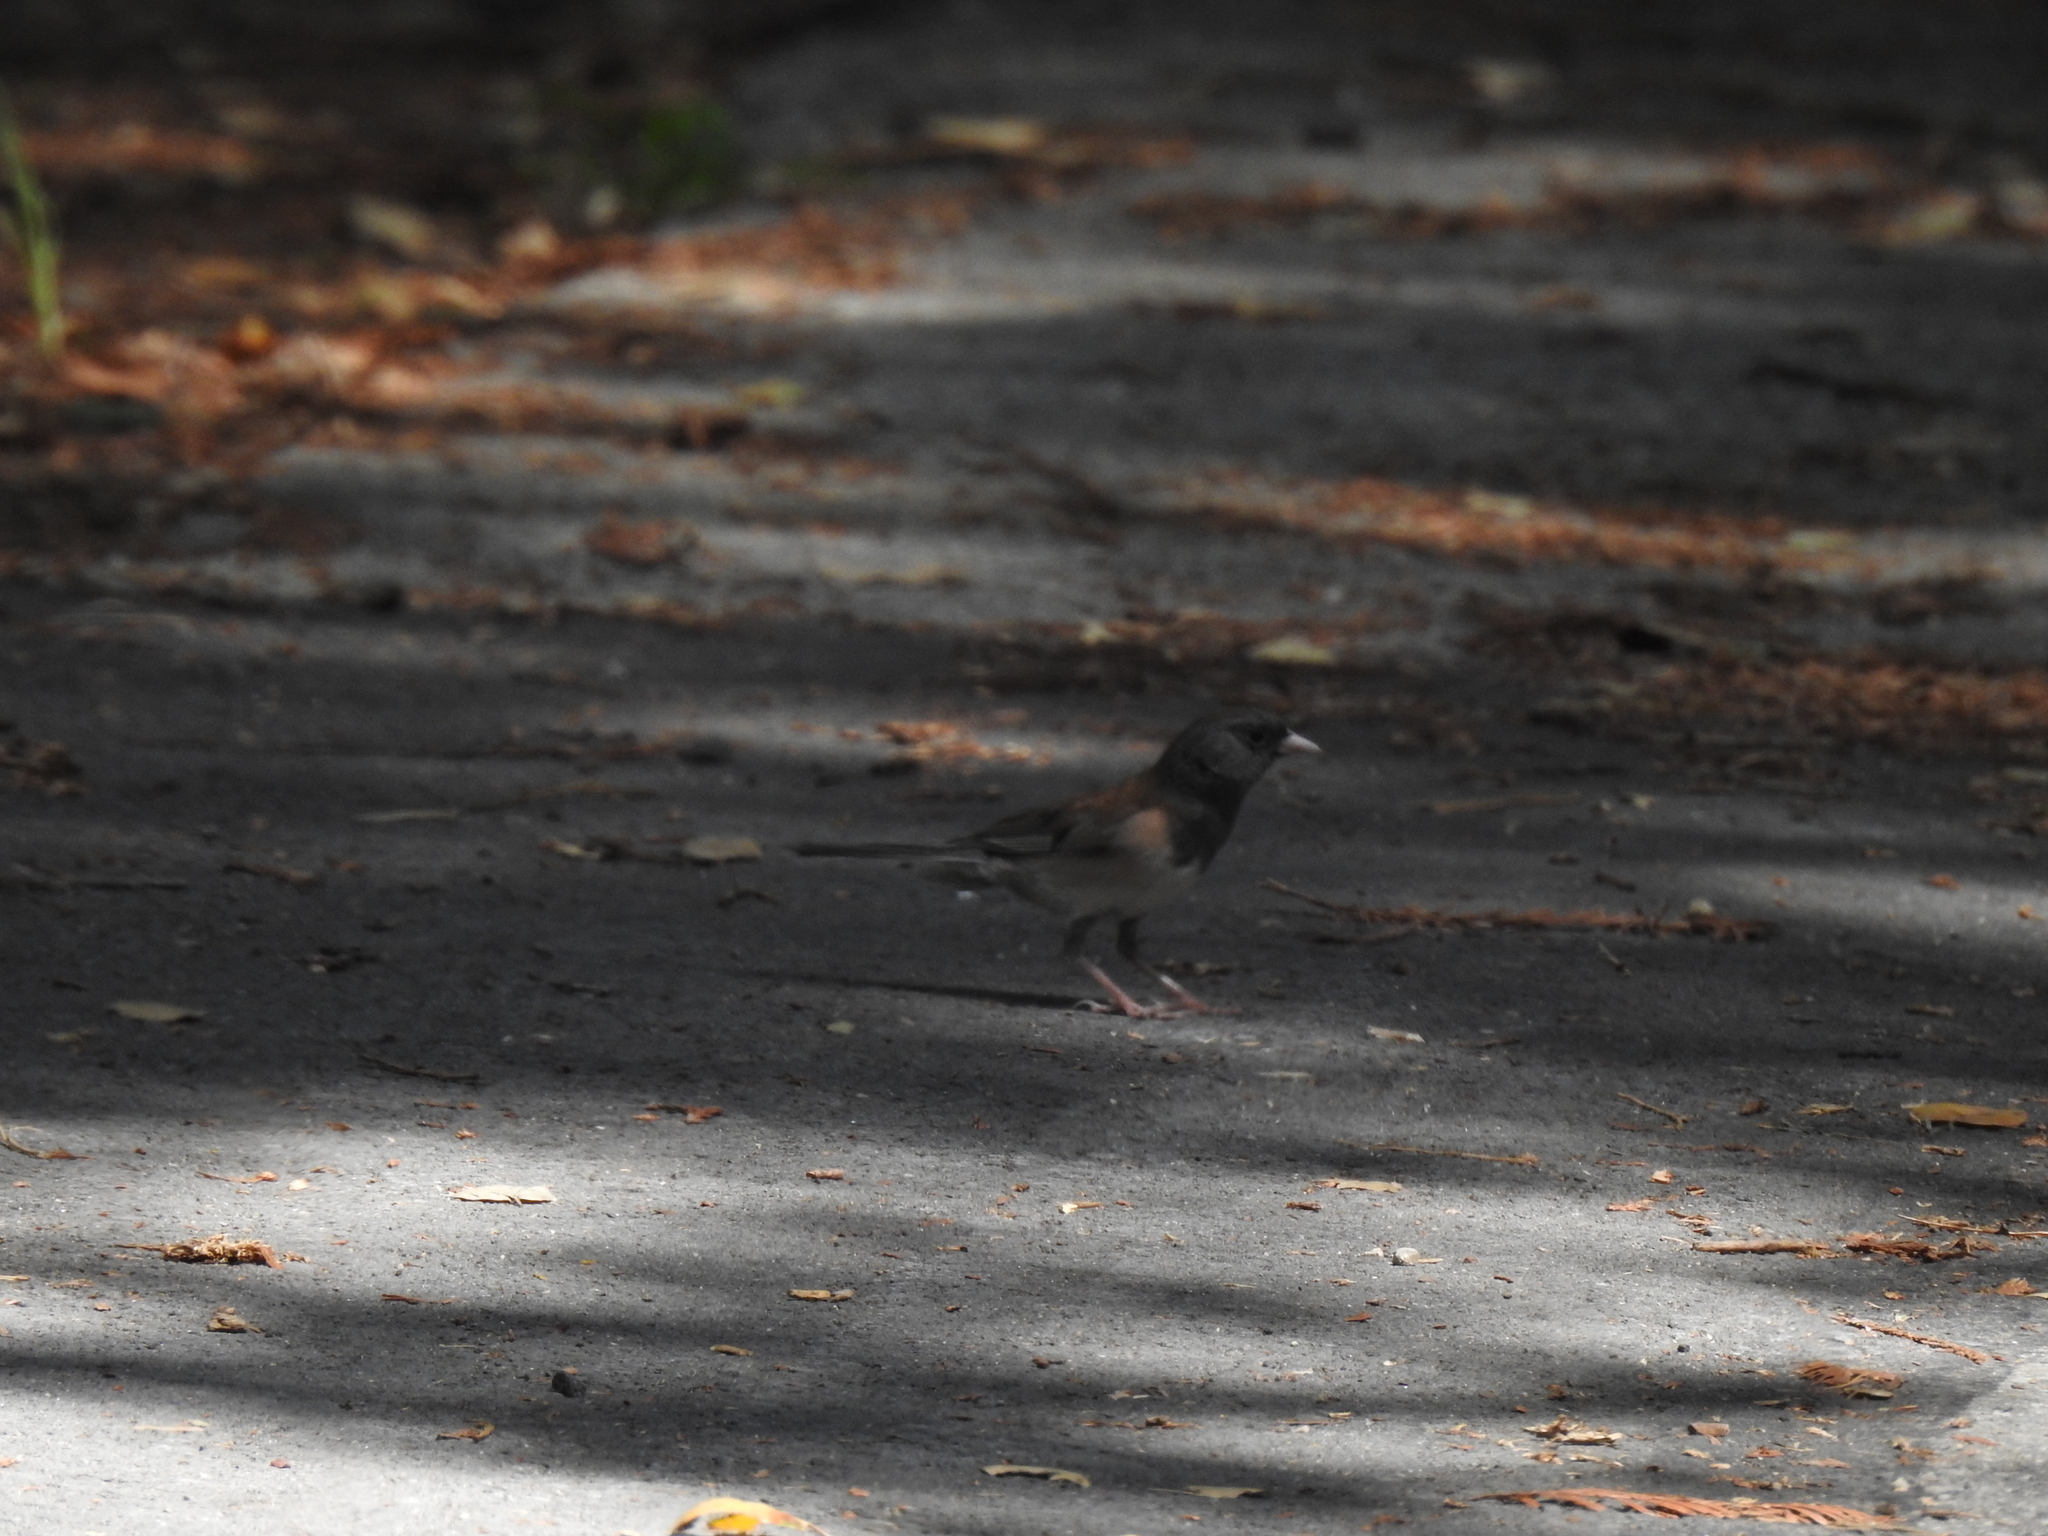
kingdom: Animalia
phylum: Chordata
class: Aves
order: Passeriformes
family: Passerellidae
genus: Junco
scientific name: Junco hyemalis
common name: Dark-eyed junco
